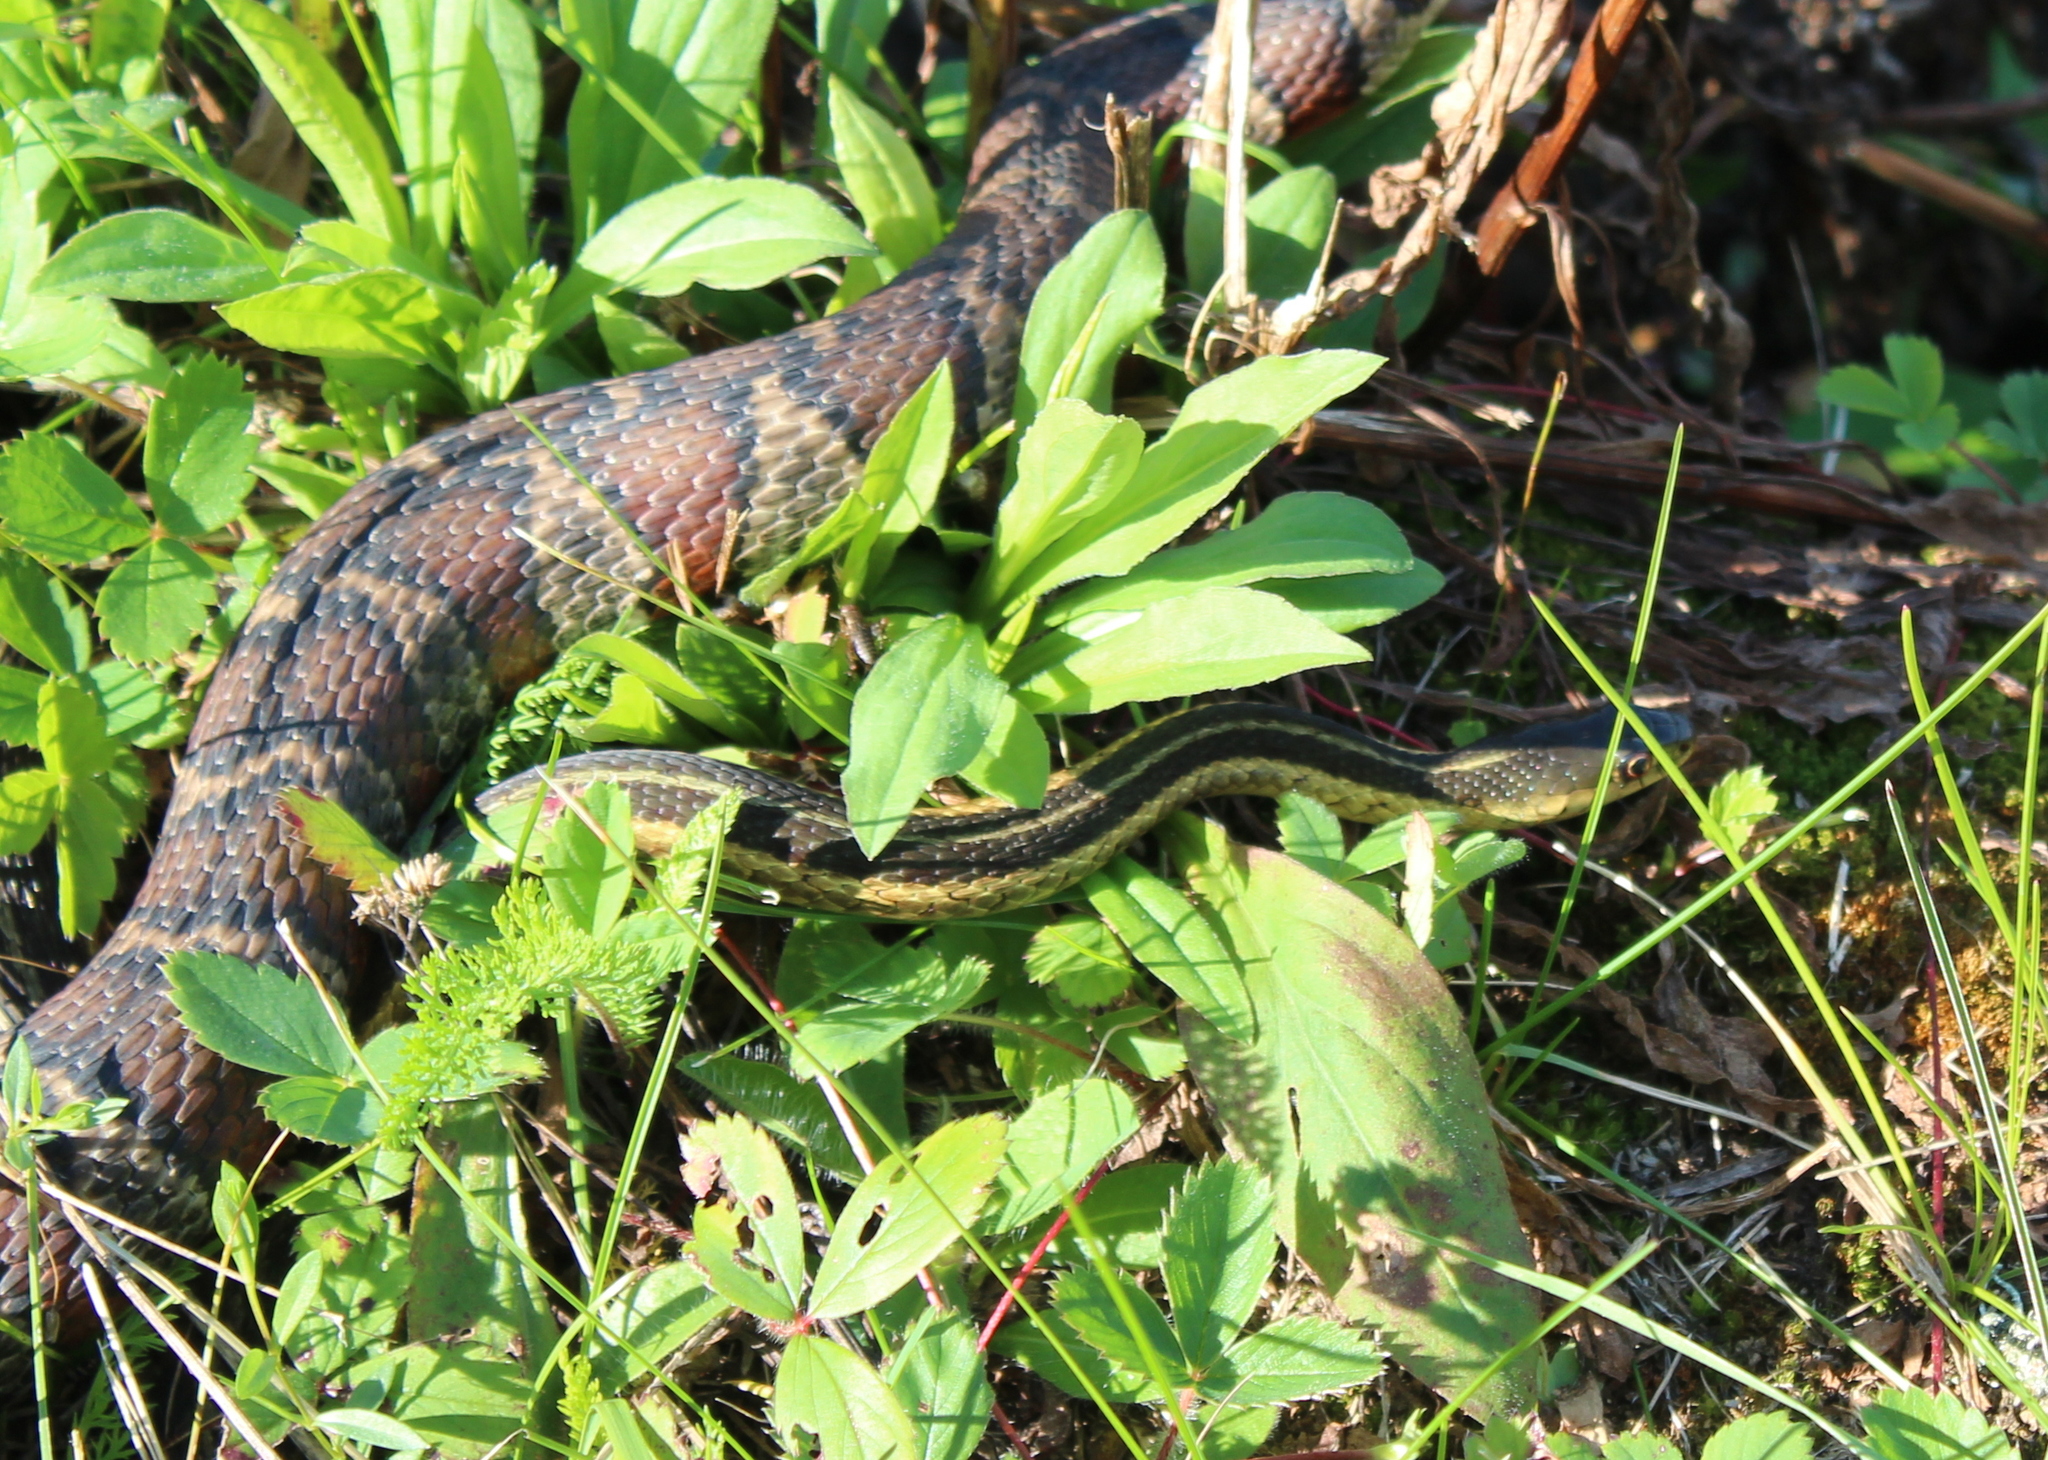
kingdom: Animalia
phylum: Chordata
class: Squamata
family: Colubridae
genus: Thamnophis
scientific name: Thamnophis sirtalis
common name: Common garter snake
